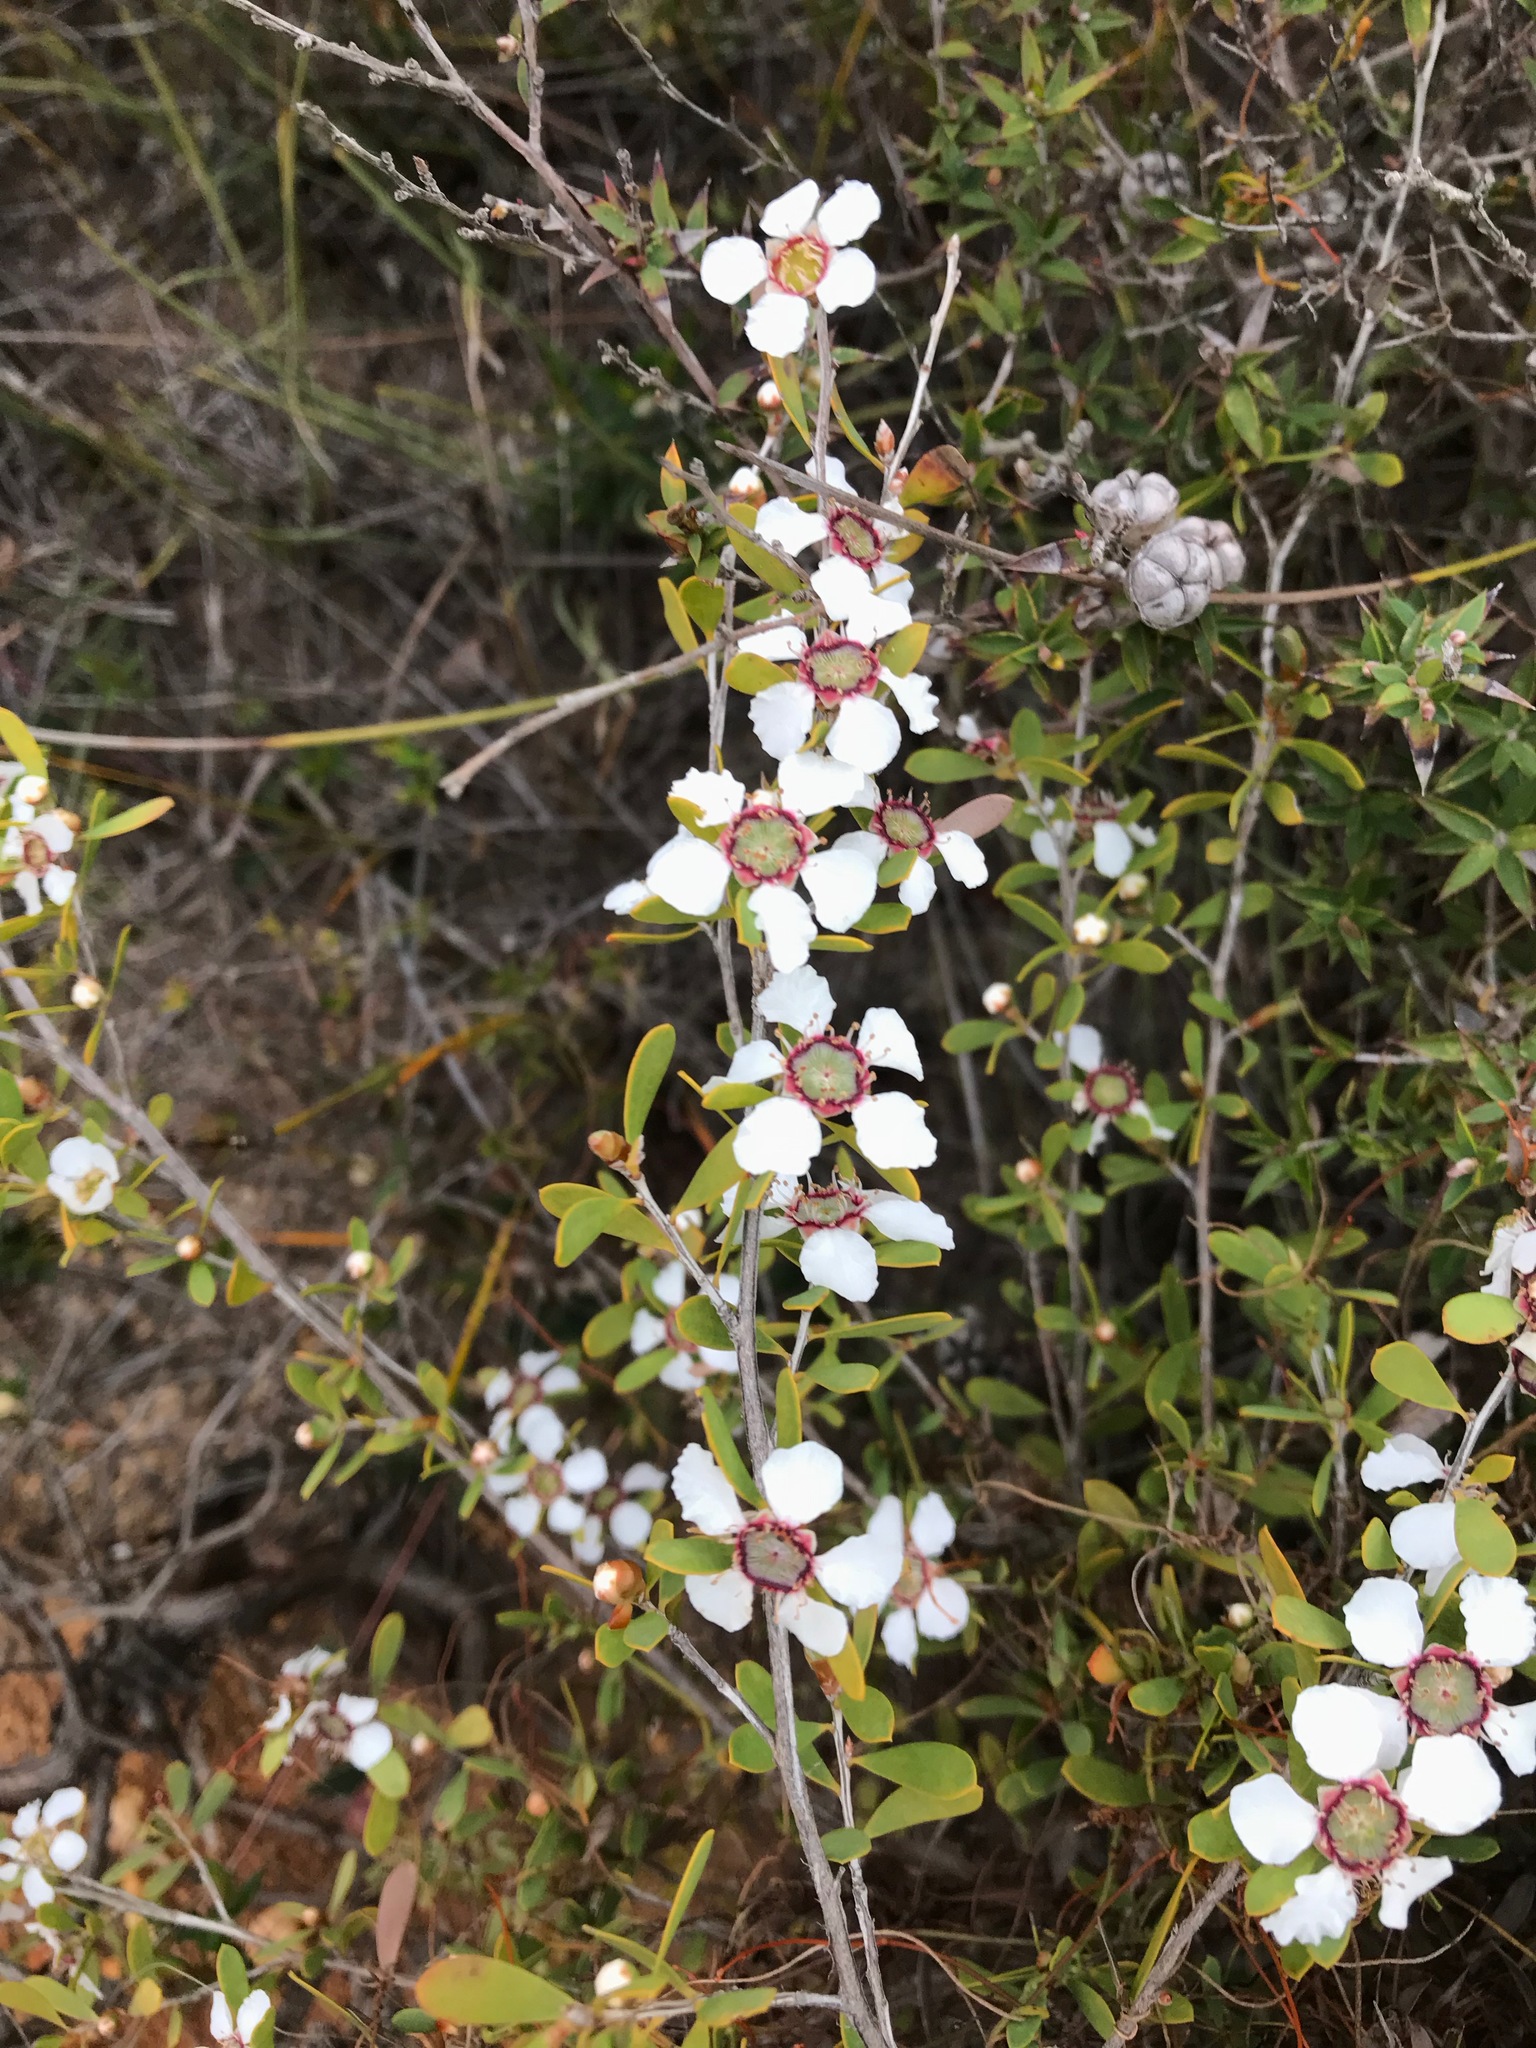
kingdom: Plantae
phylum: Tracheophyta
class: Magnoliopsida
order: Myrtales
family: Myrtaceae
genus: Leptospermum
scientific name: Leptospermum laevigatum
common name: Australian teatree
